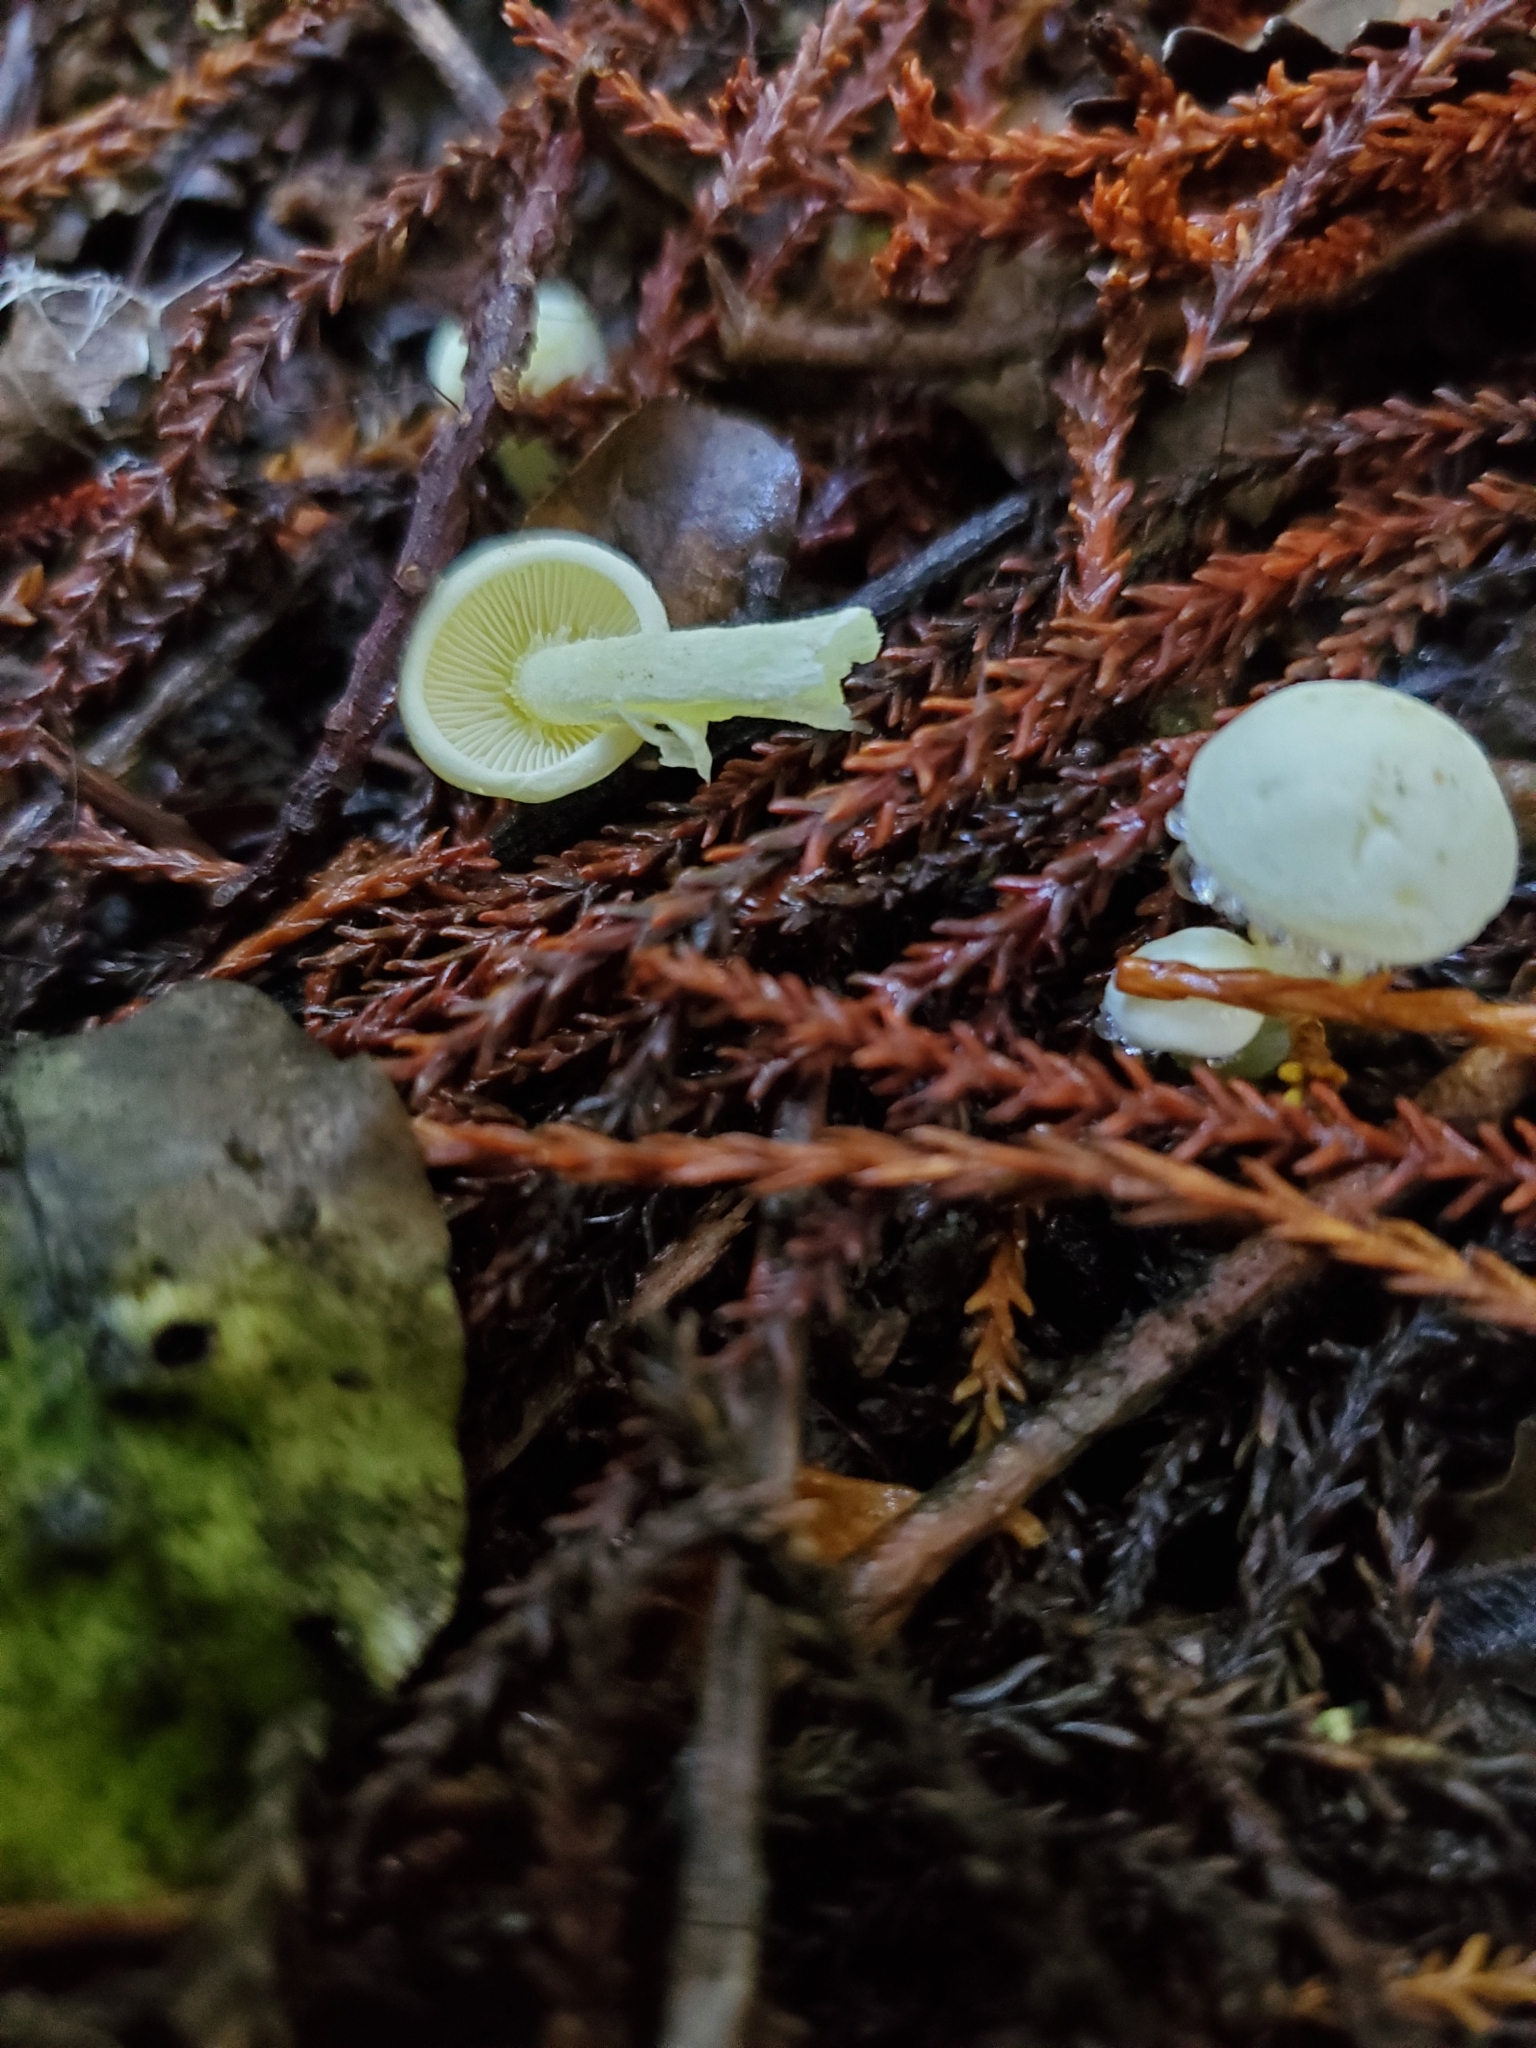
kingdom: Fungi
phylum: Basidiomycota
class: Agaricomycetes
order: Agaricales
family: Hygrophoraceae
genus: Hygrophorus
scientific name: Hygrophorus involutus
